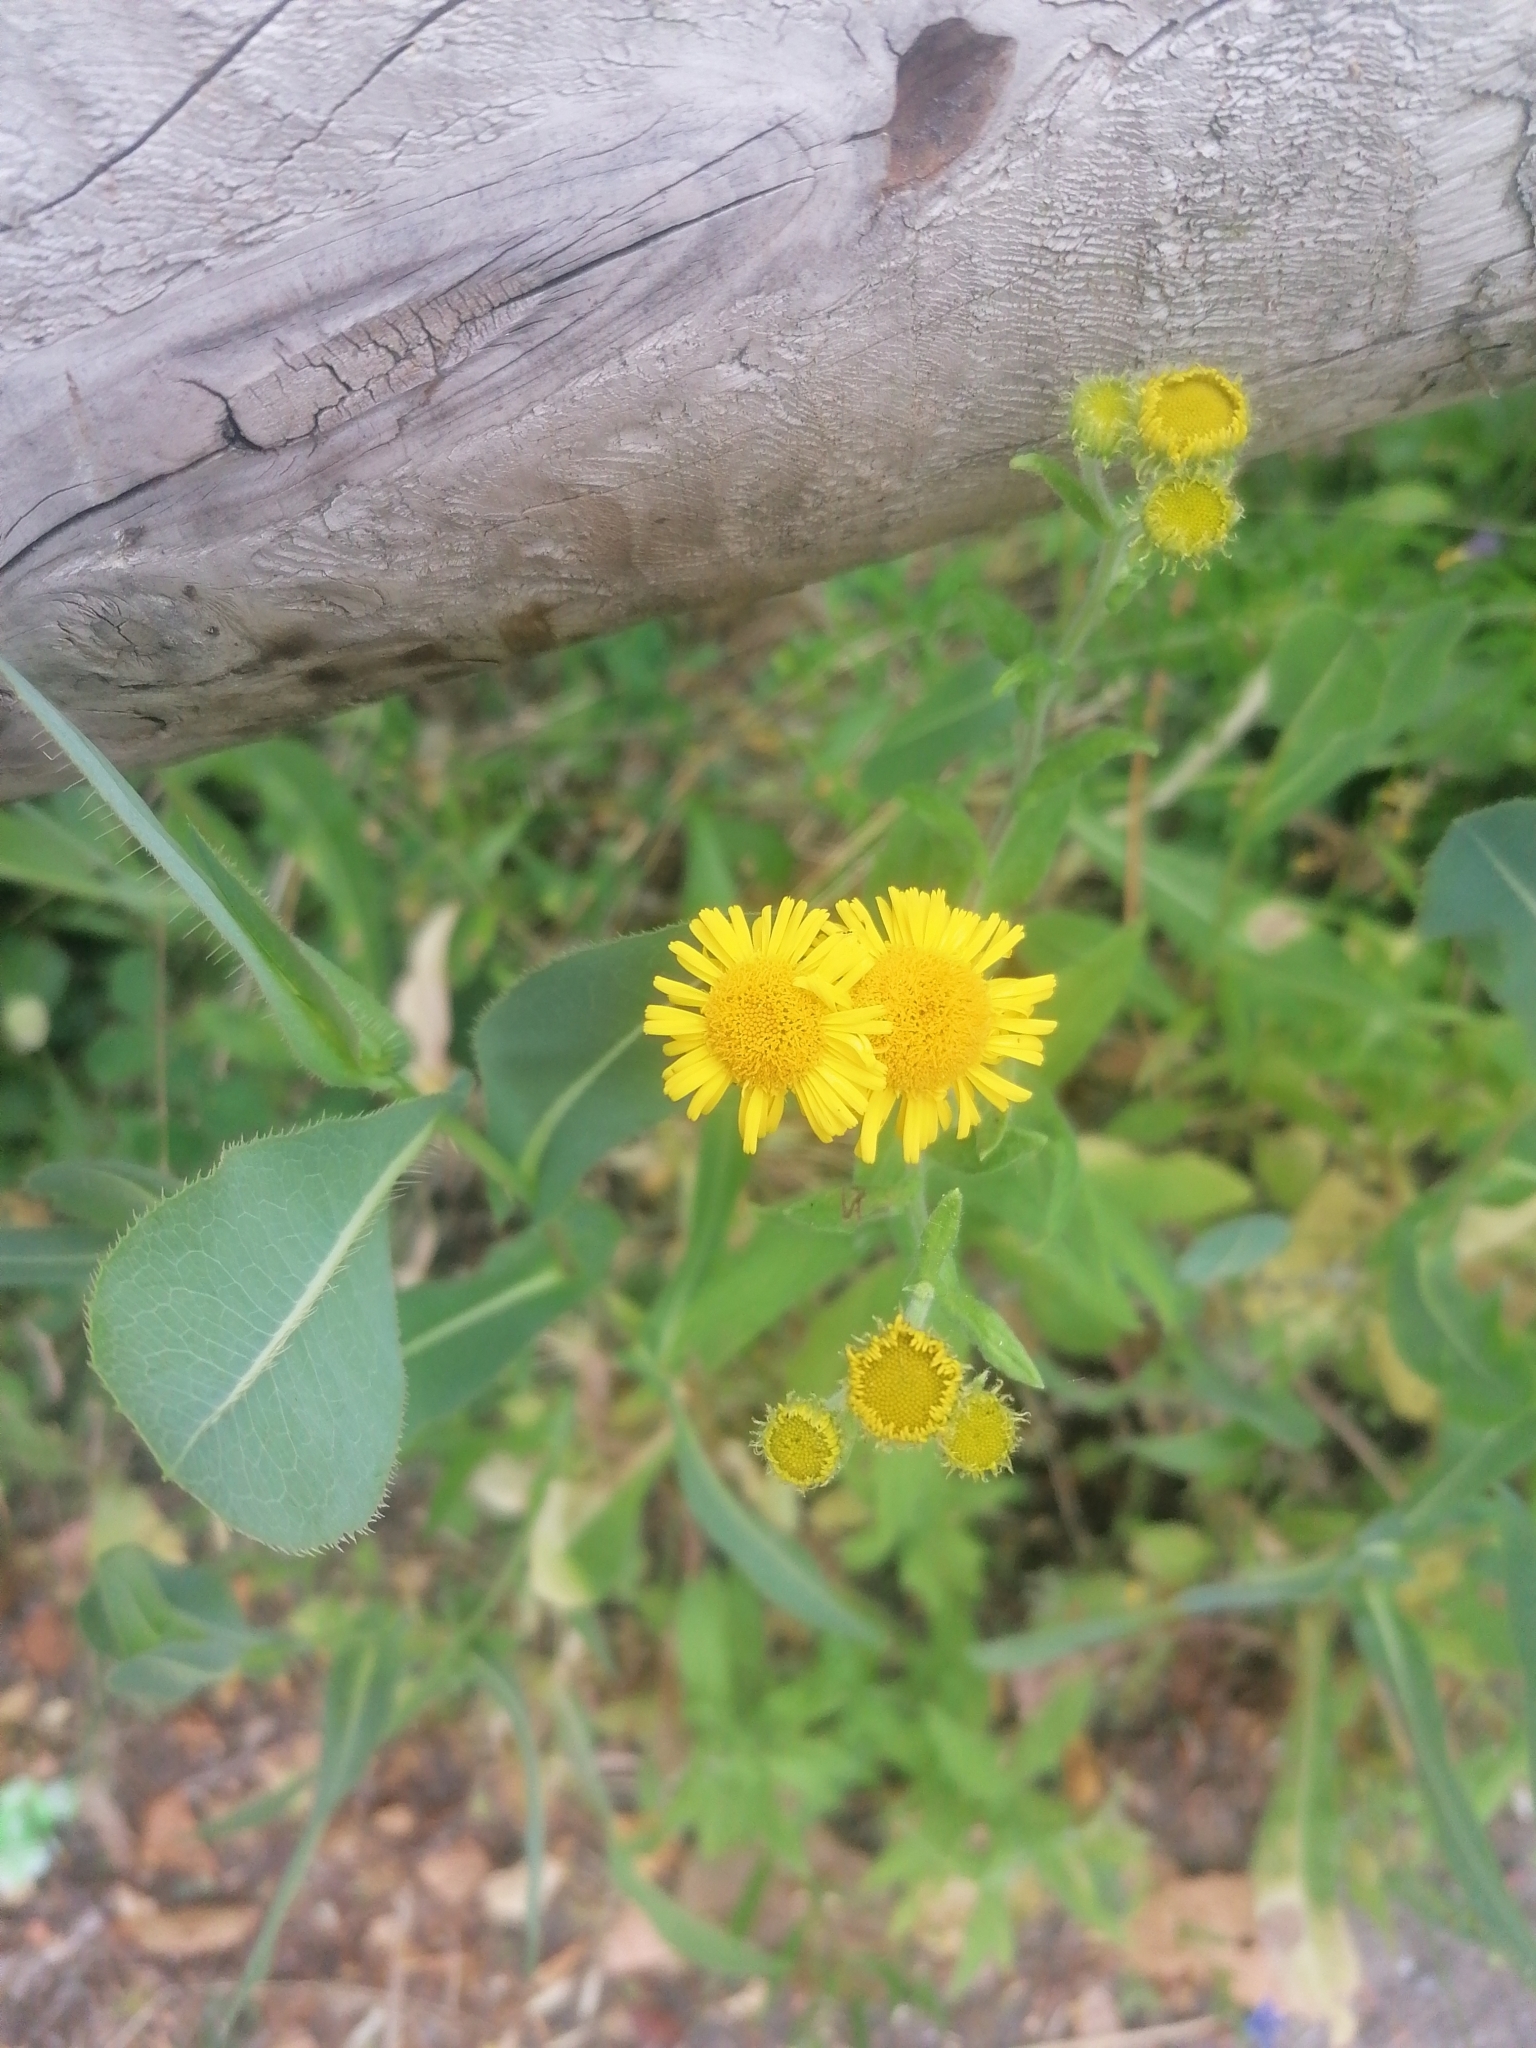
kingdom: Plantae
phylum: Tracheophyta
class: Magnoliopsida
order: Asterales
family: Asteraceae
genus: Pulicaria
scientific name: Pulicaria dysenterica
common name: Common fleabane
